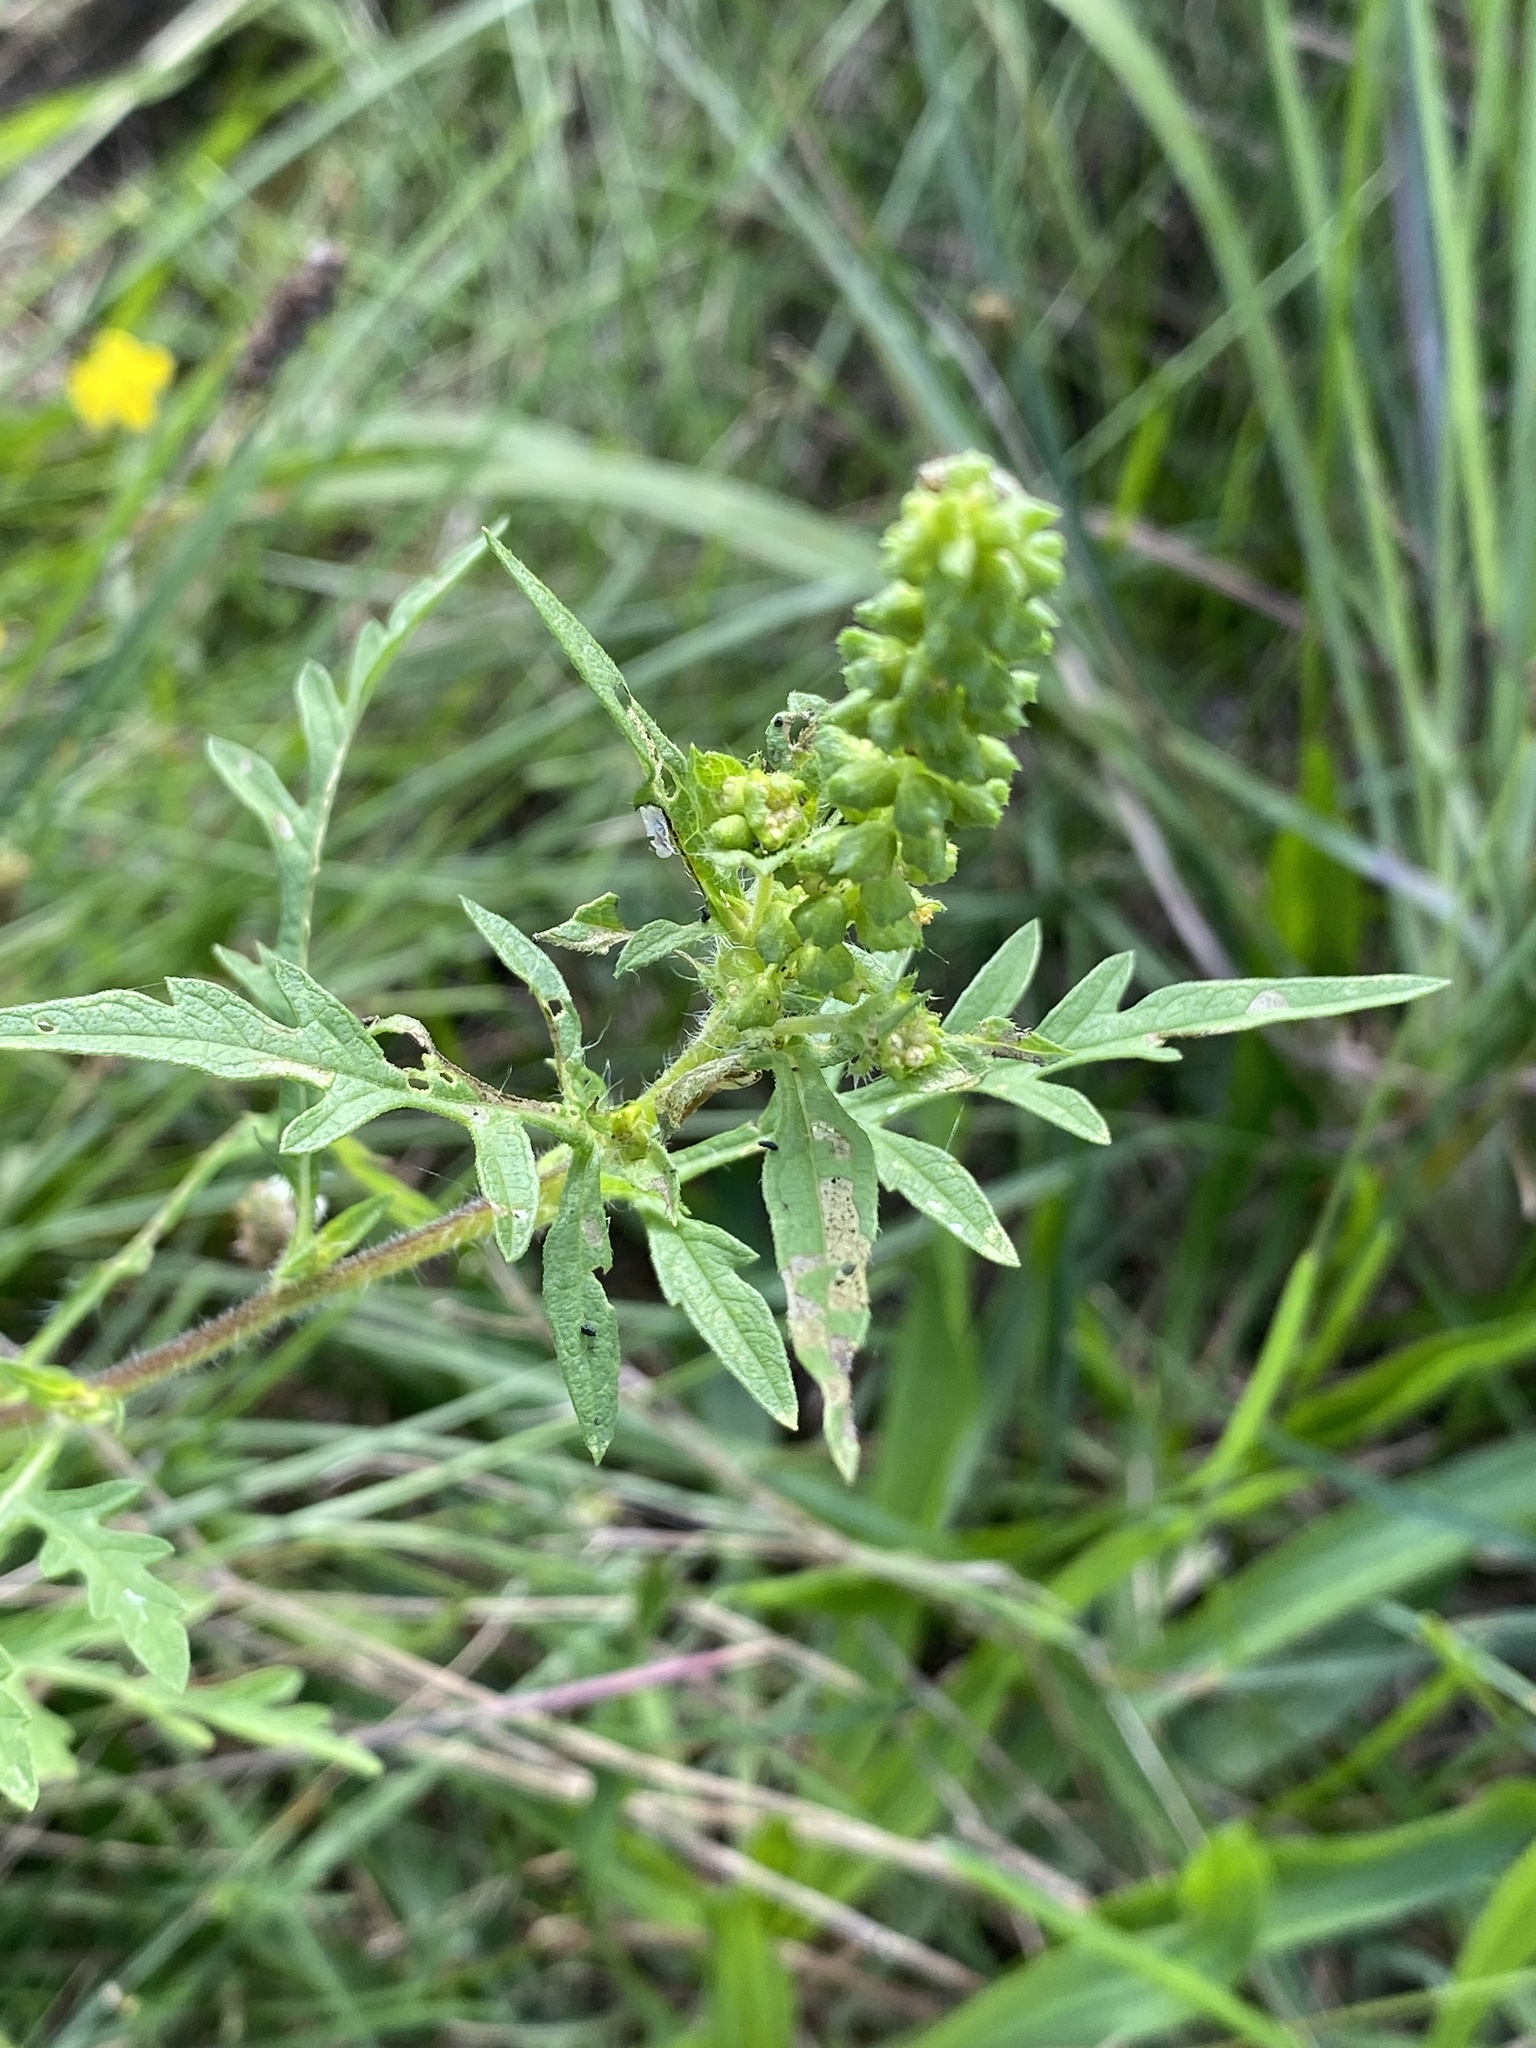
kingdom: Plantae
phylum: Tracheophyta
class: Magnoliopsida
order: Asterales
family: Asteraceae
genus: Ambrosia
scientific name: Ambrosia artemisiifolia
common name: Annual ragweed
